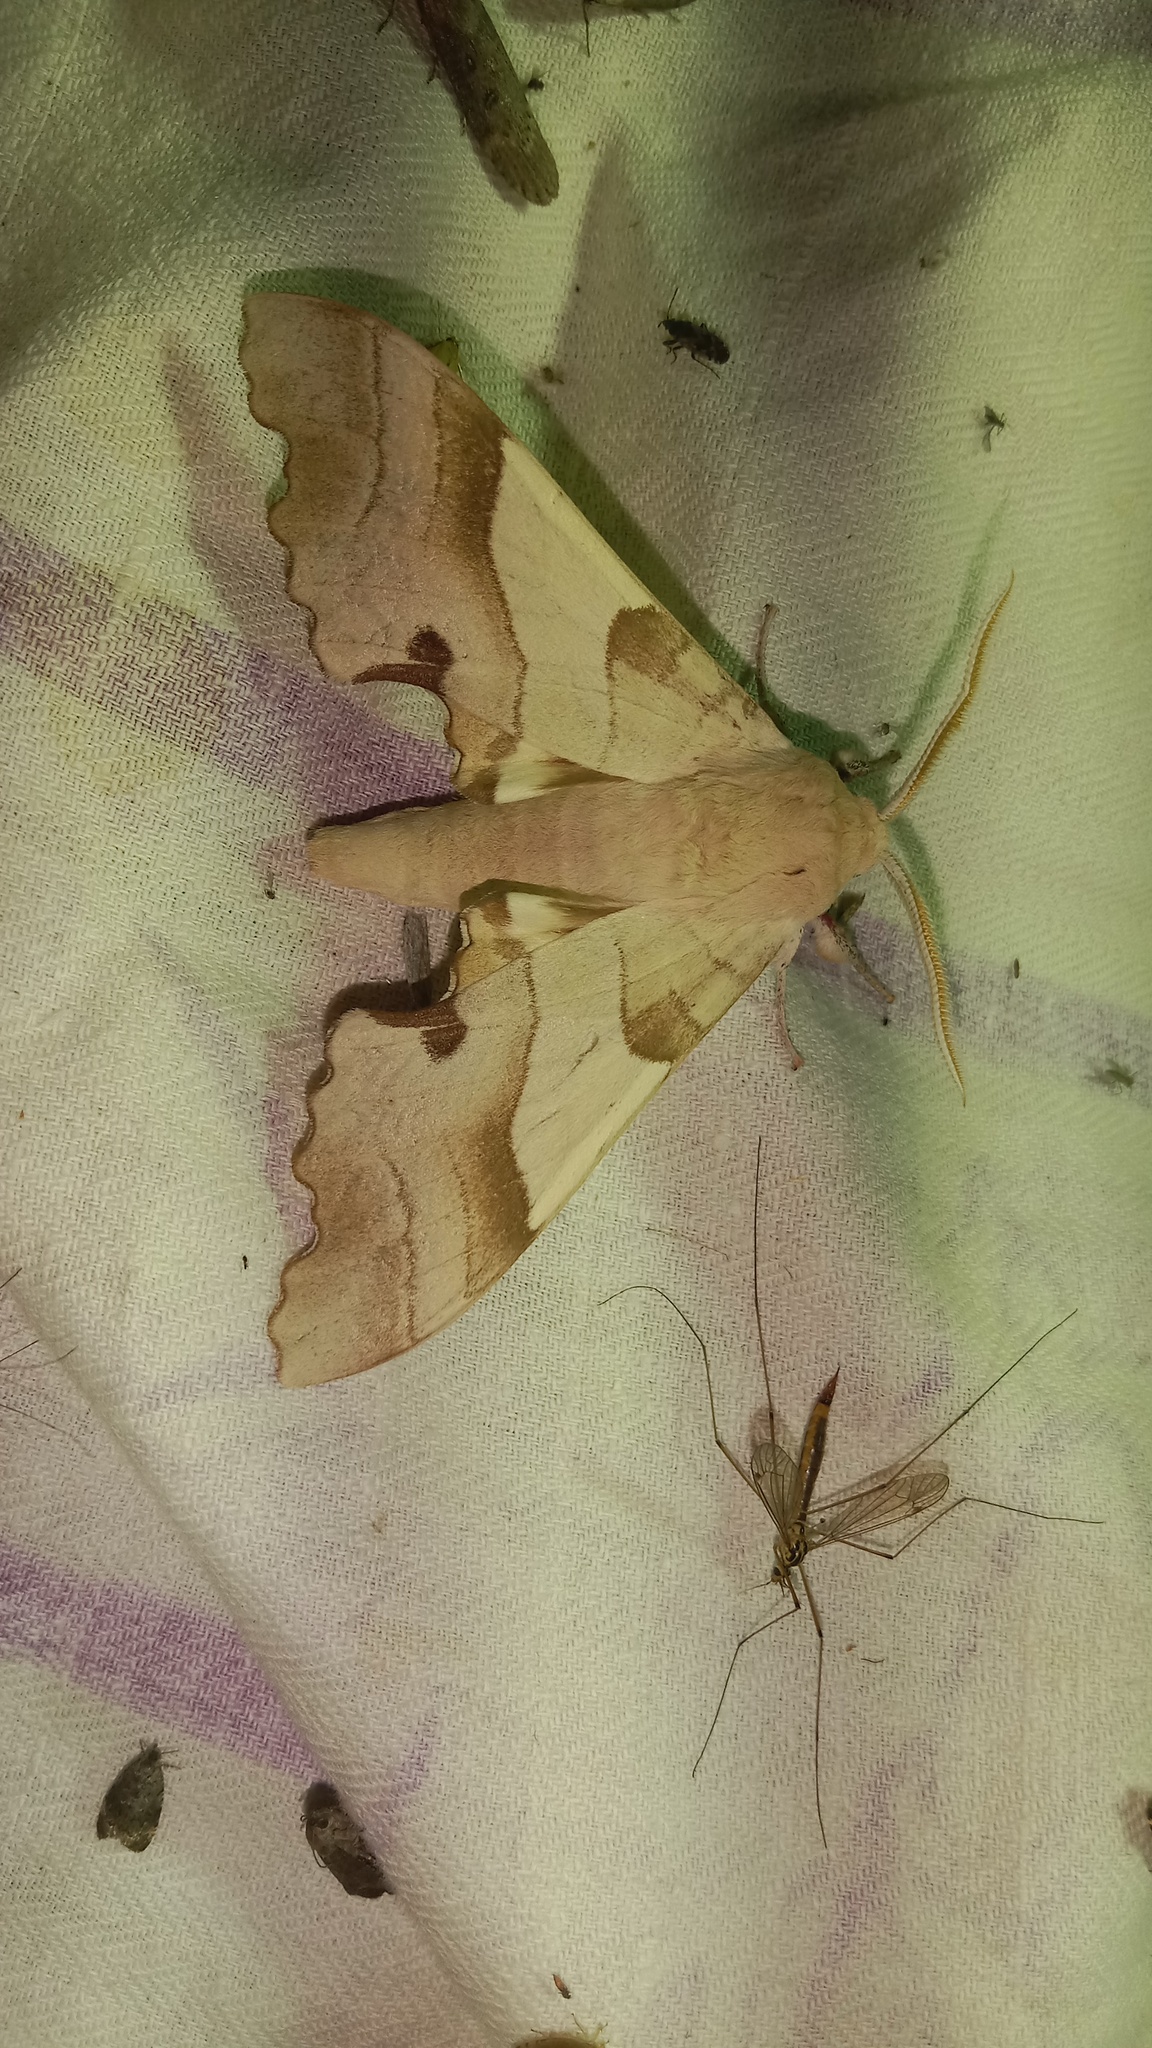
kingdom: Animalia
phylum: Arthropoda
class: Insecta
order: Lepidoptera
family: Sphingidae
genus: Marumba
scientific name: Marumba quercus
